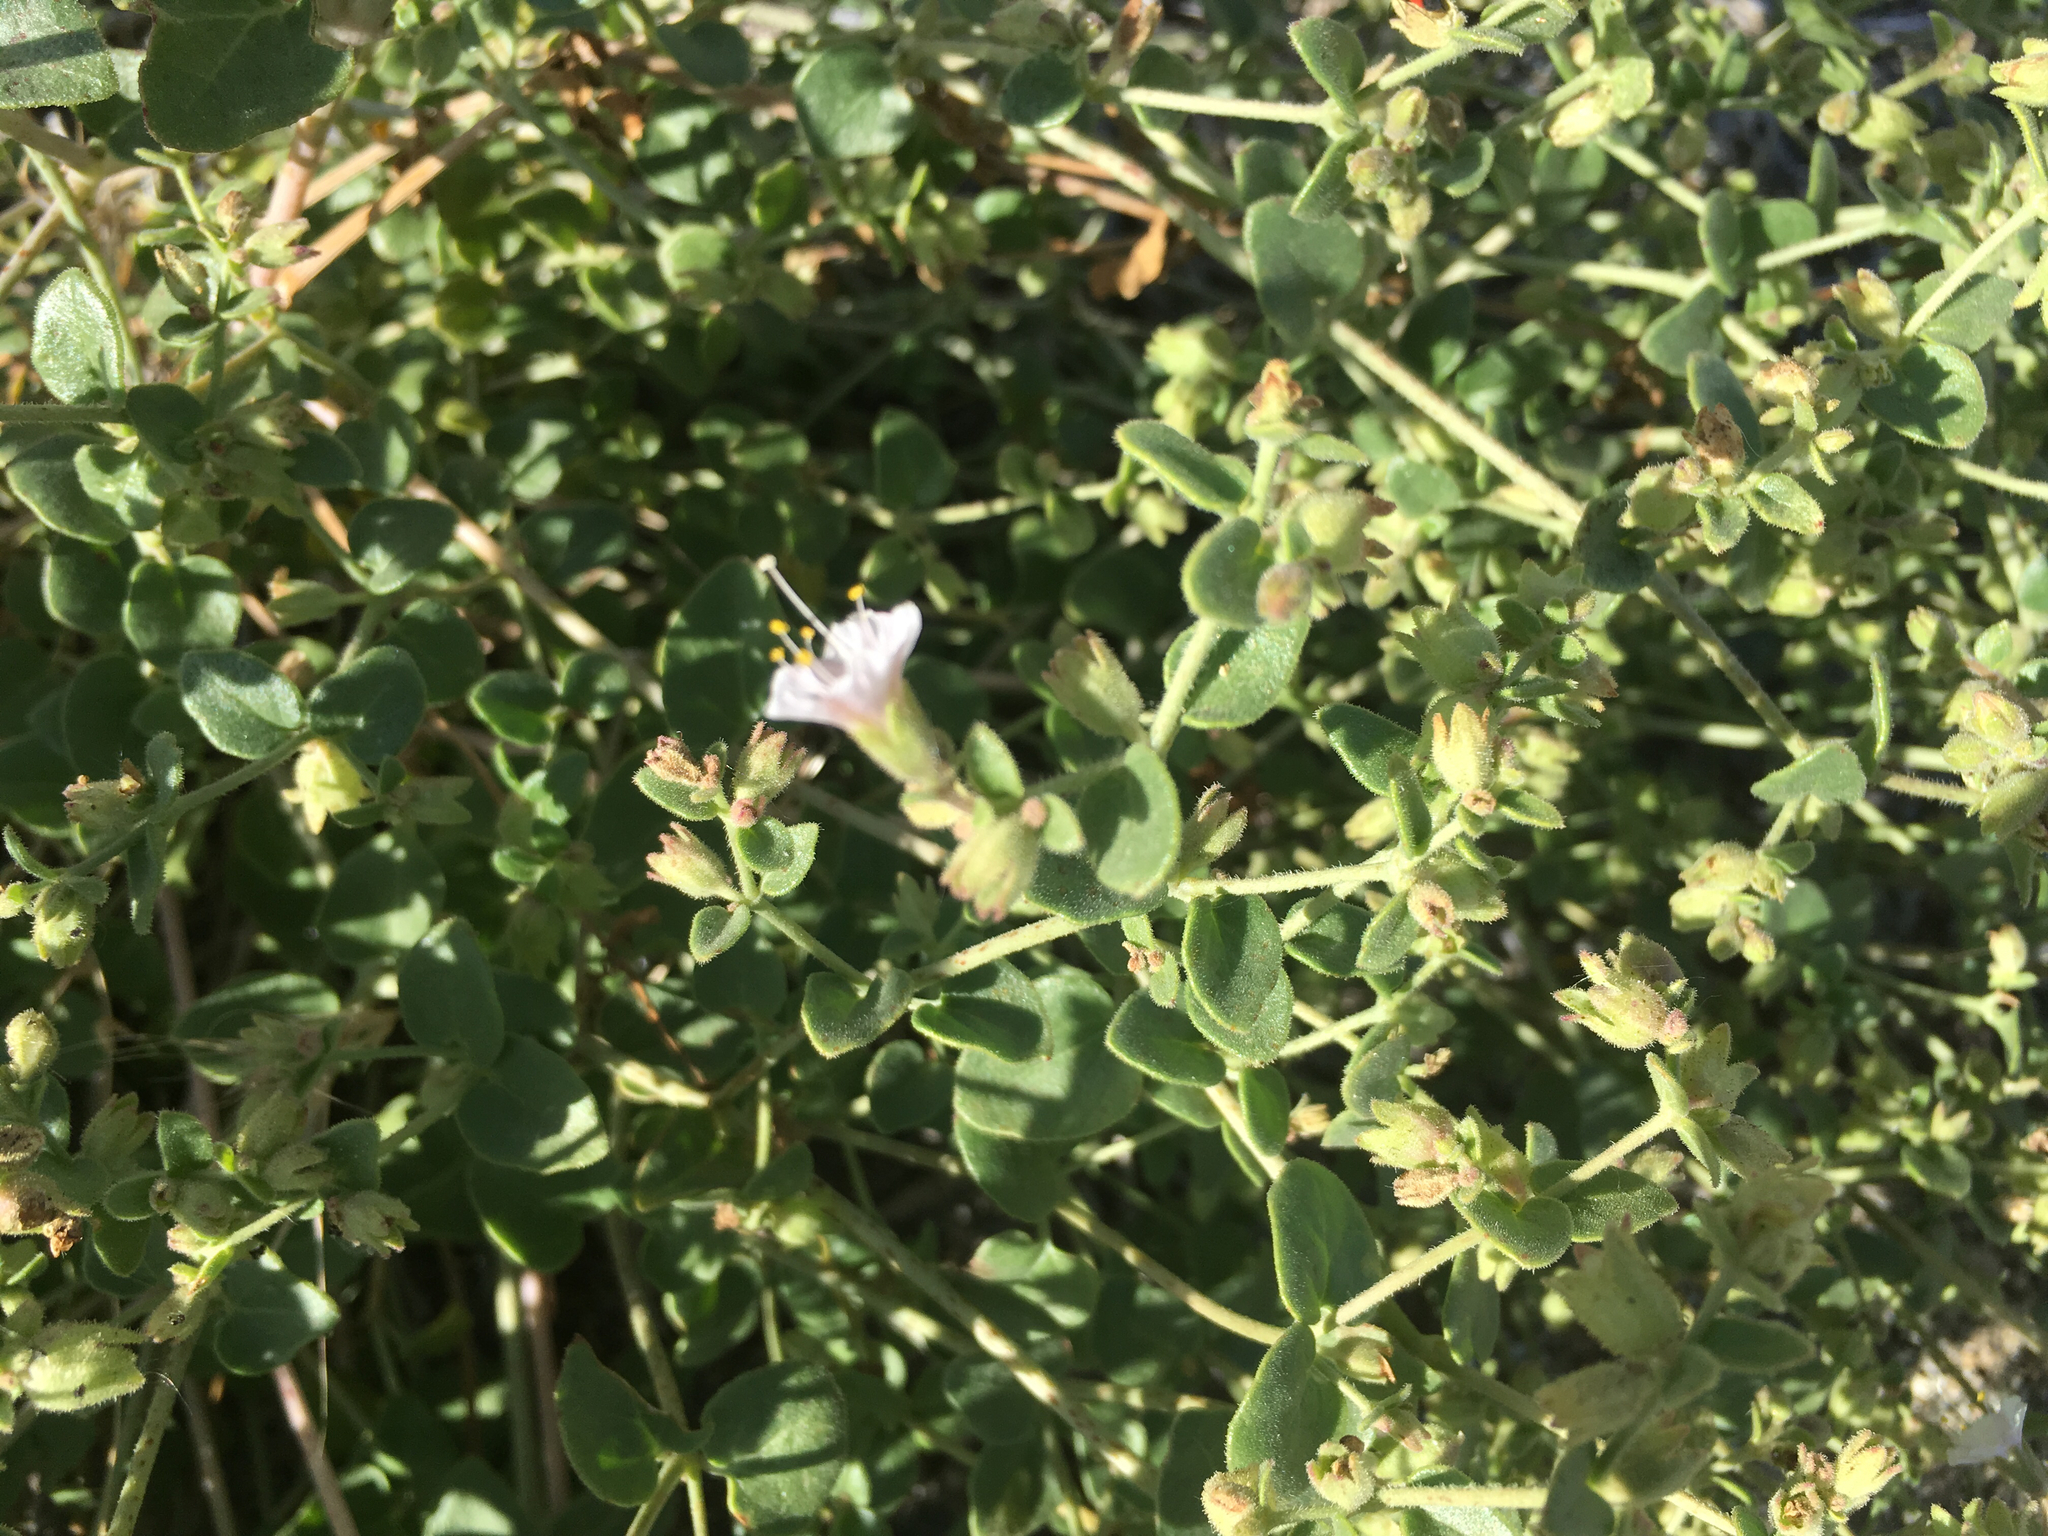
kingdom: Plantae
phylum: Tracheophyta
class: Magnoliopsida
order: Caryophyllales
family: Nyctaginaceae
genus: Mirabilis
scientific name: Mirabilis laevis
